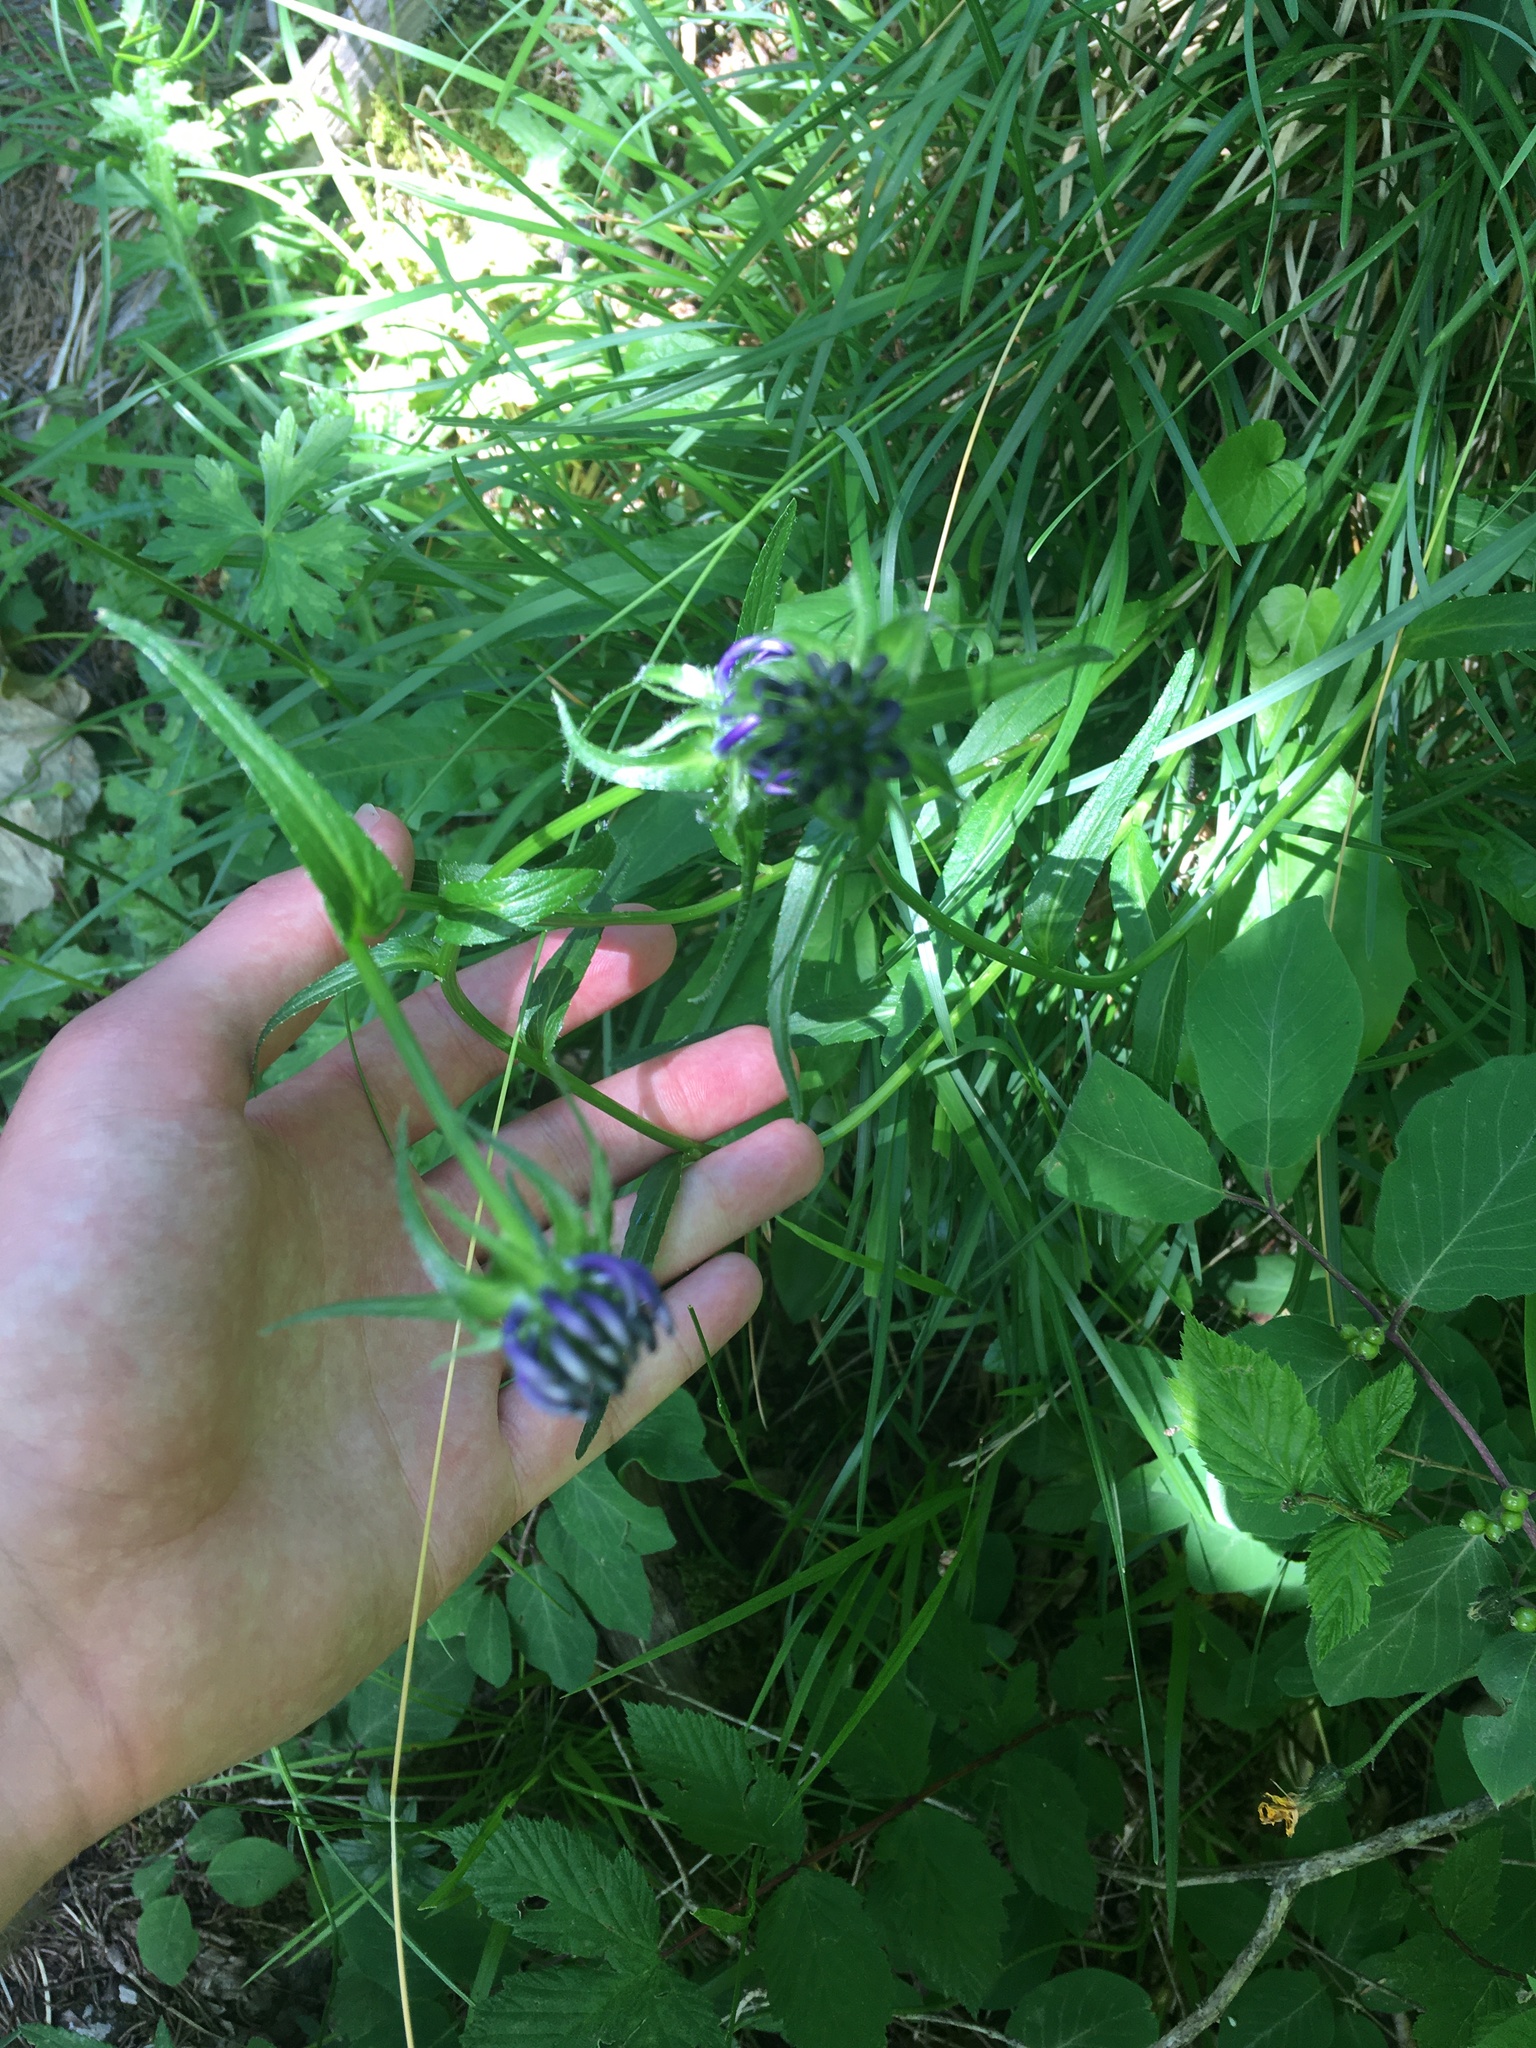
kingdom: Plantae
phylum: Tracheophyta
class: Magnoliopsida
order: Asterales
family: Campanulaceae
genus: Phyteuma
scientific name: Phyteuma orbiculare
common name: Round-headed rampion
